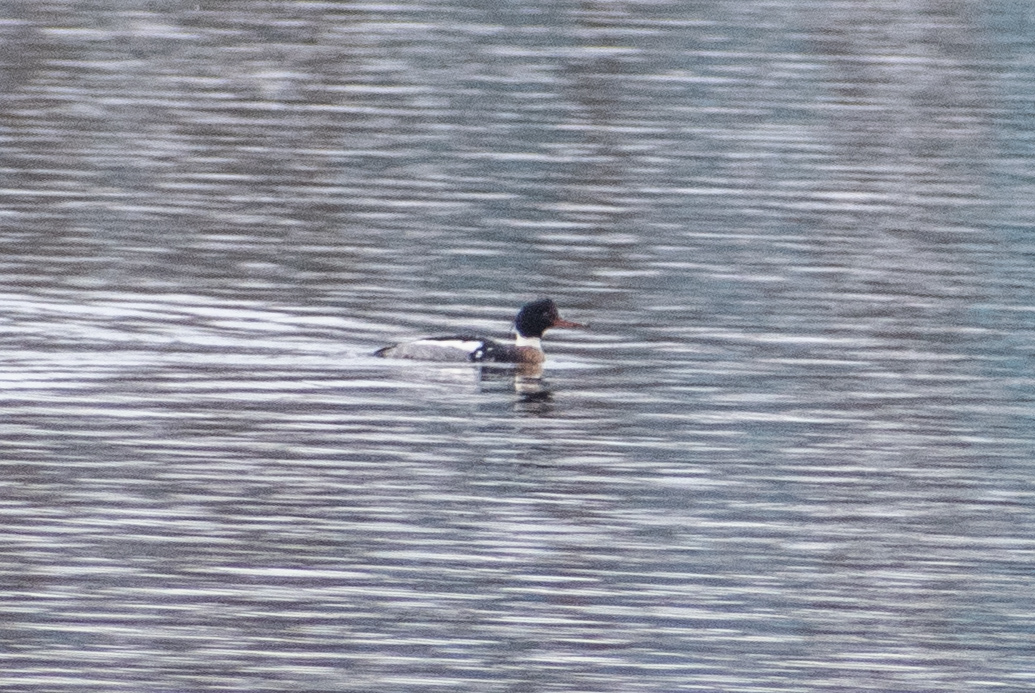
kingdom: Animalia
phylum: Chordata
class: Aves
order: Anseriformes
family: Anatidae
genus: Mergus
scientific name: Mergus serrator
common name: Red-breasted merganser
